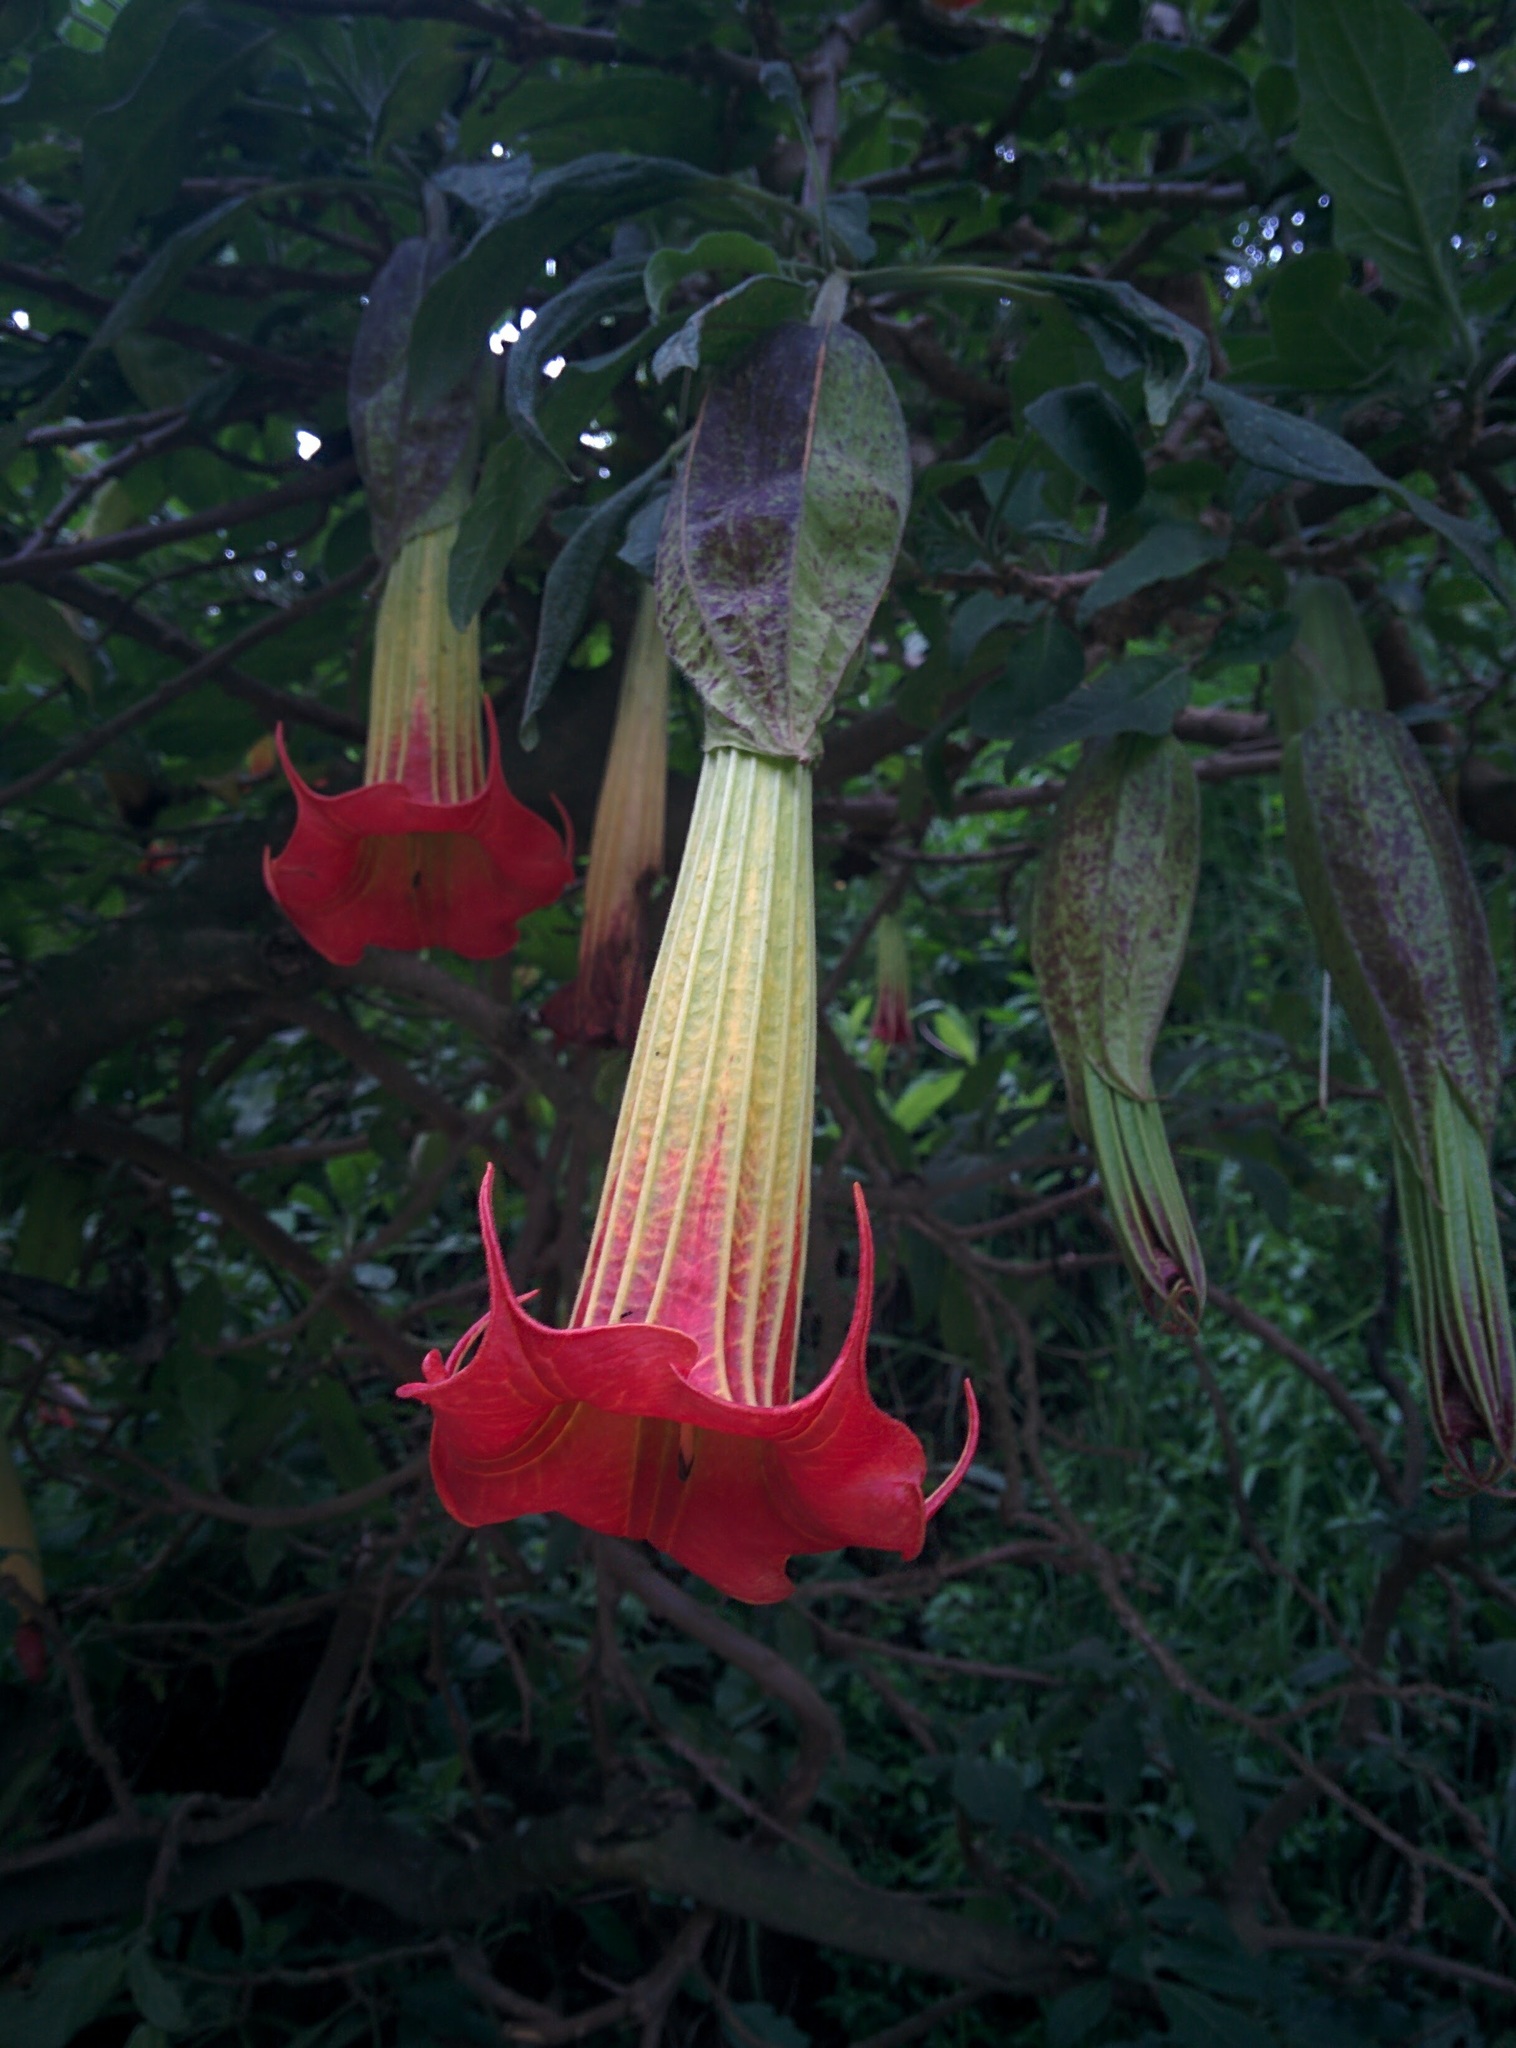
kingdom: Plantae
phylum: Tracheophyta
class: Magnoliopsida
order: Solanales
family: Solanaceae
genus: Brugmansia
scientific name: Brugmansia sanguinea
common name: Red floripontio
